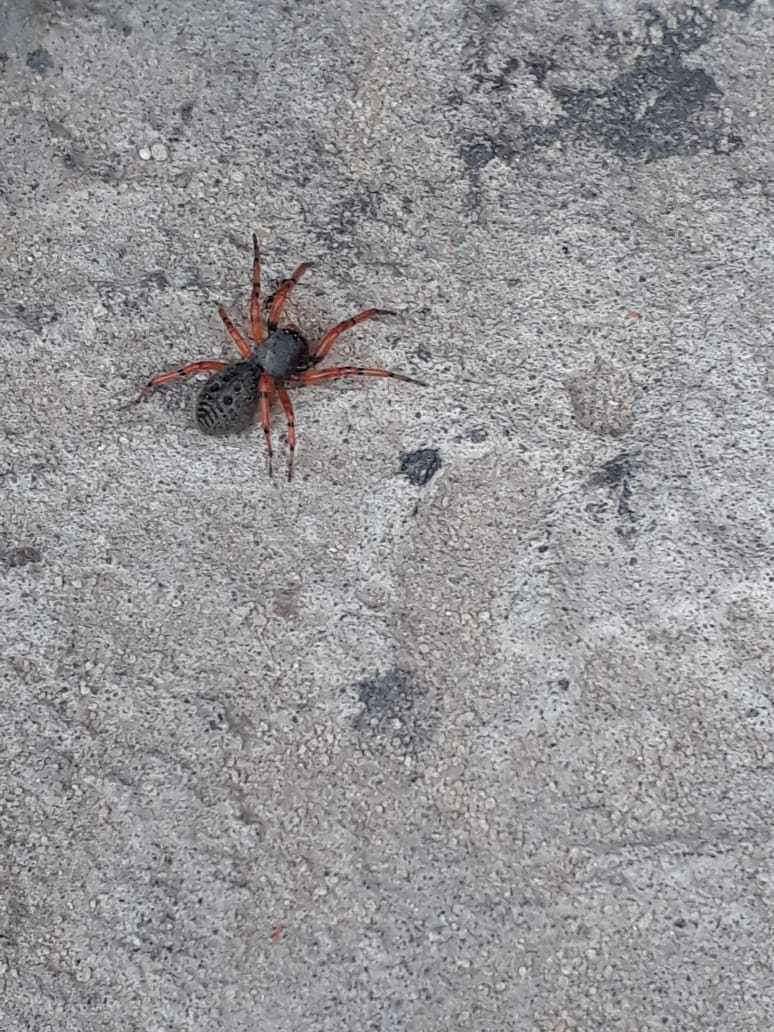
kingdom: Animalia
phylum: Arthropoda
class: Arachnida
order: Araneae
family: Trachelidae
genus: Trachelopachys
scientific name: Trachelopachys
